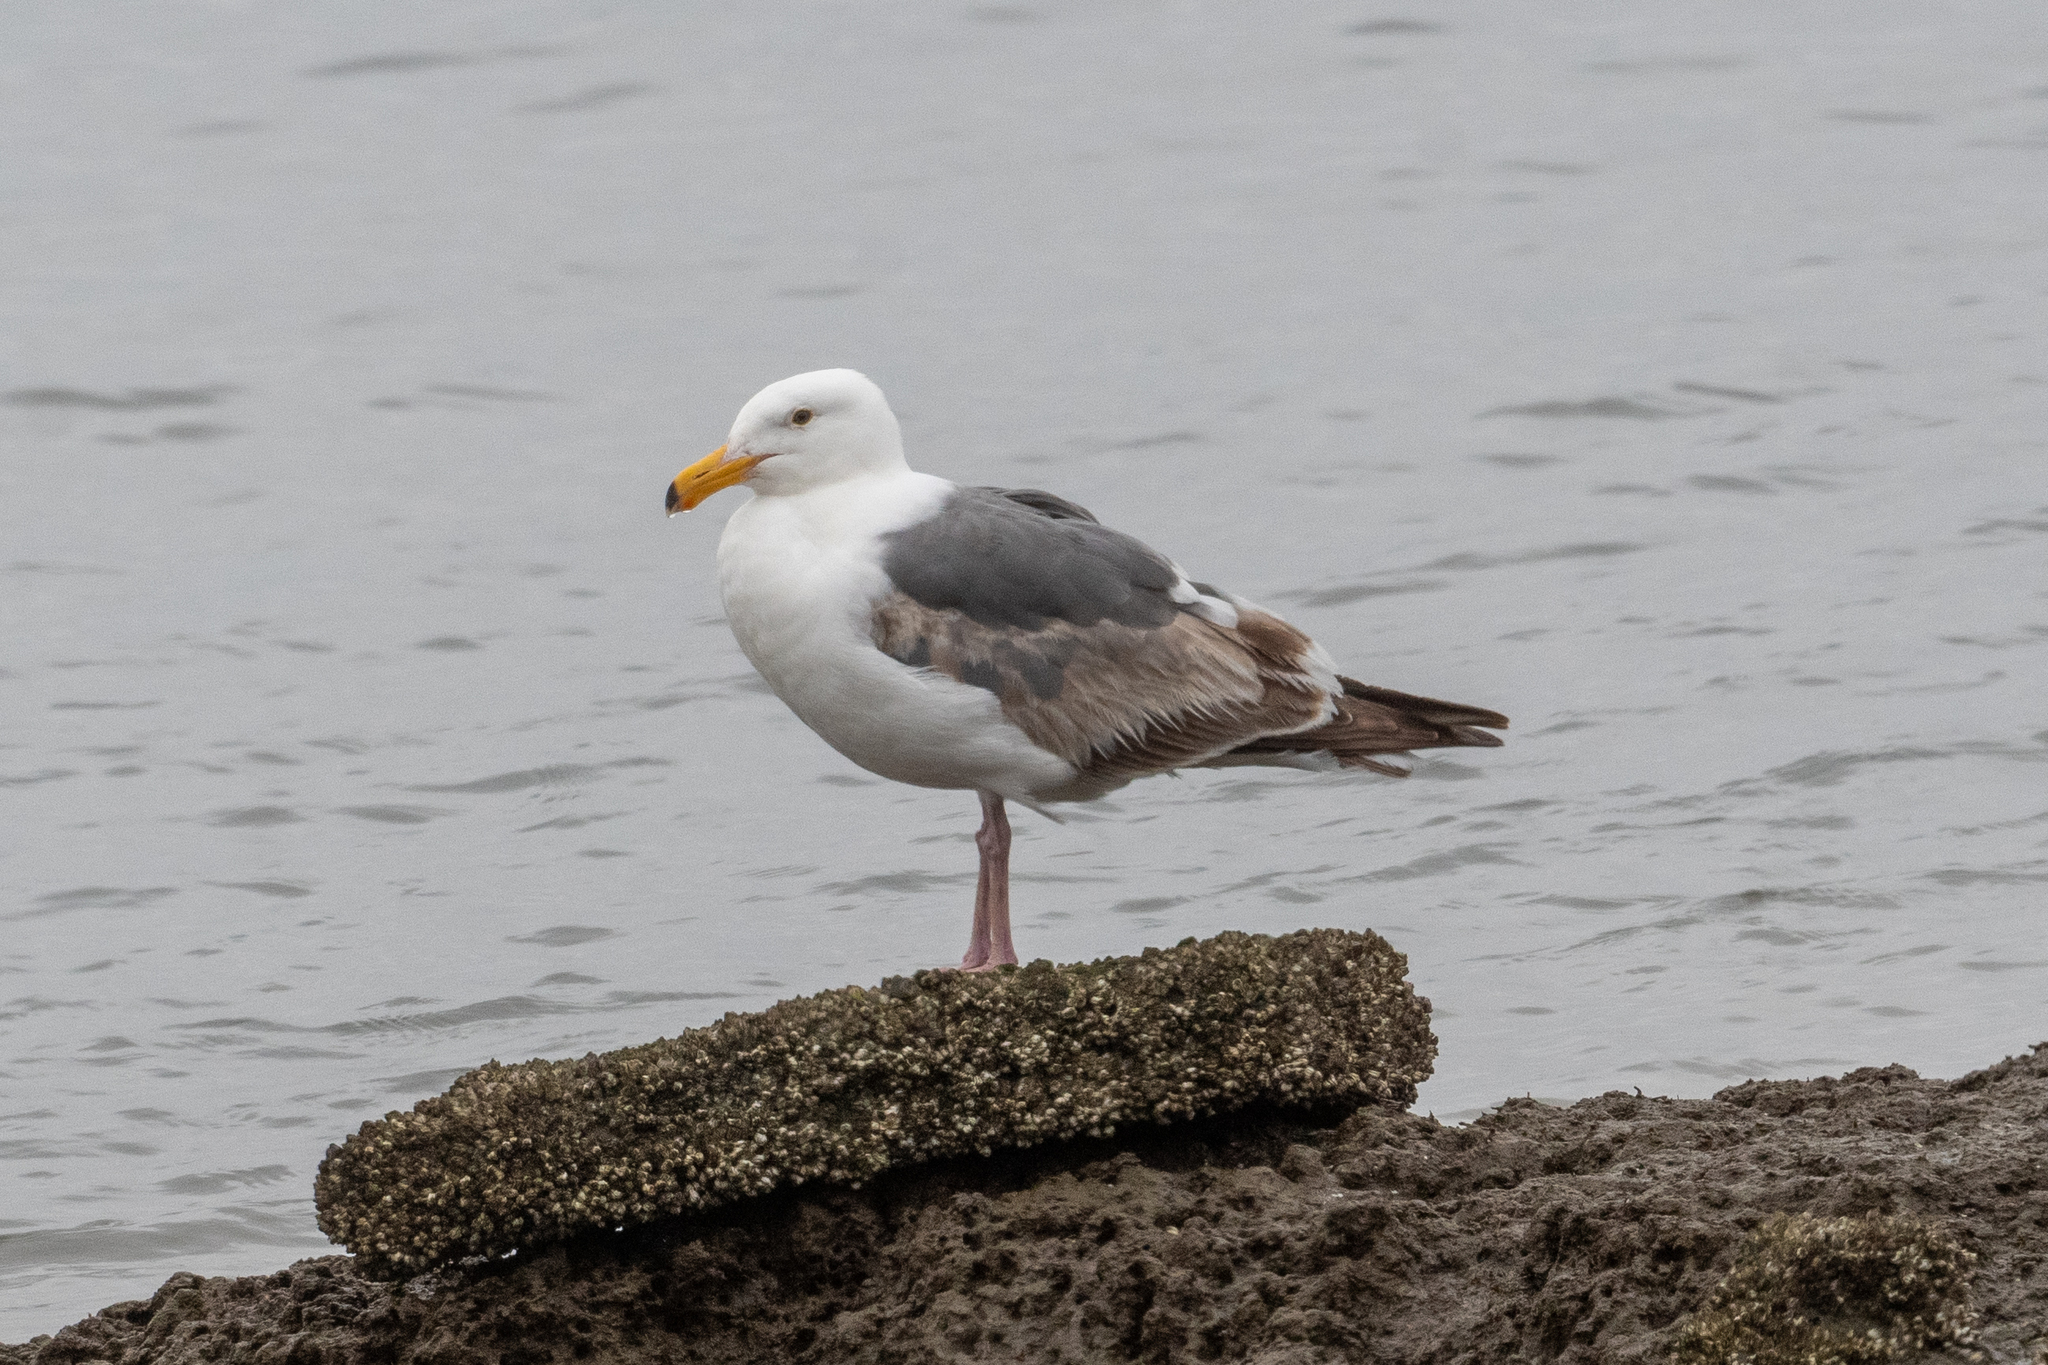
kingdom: Animalia
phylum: Chordata
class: Aves
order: Charadriiformes
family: Laridae
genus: Larus
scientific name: Larus occidentalis
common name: Western gull
